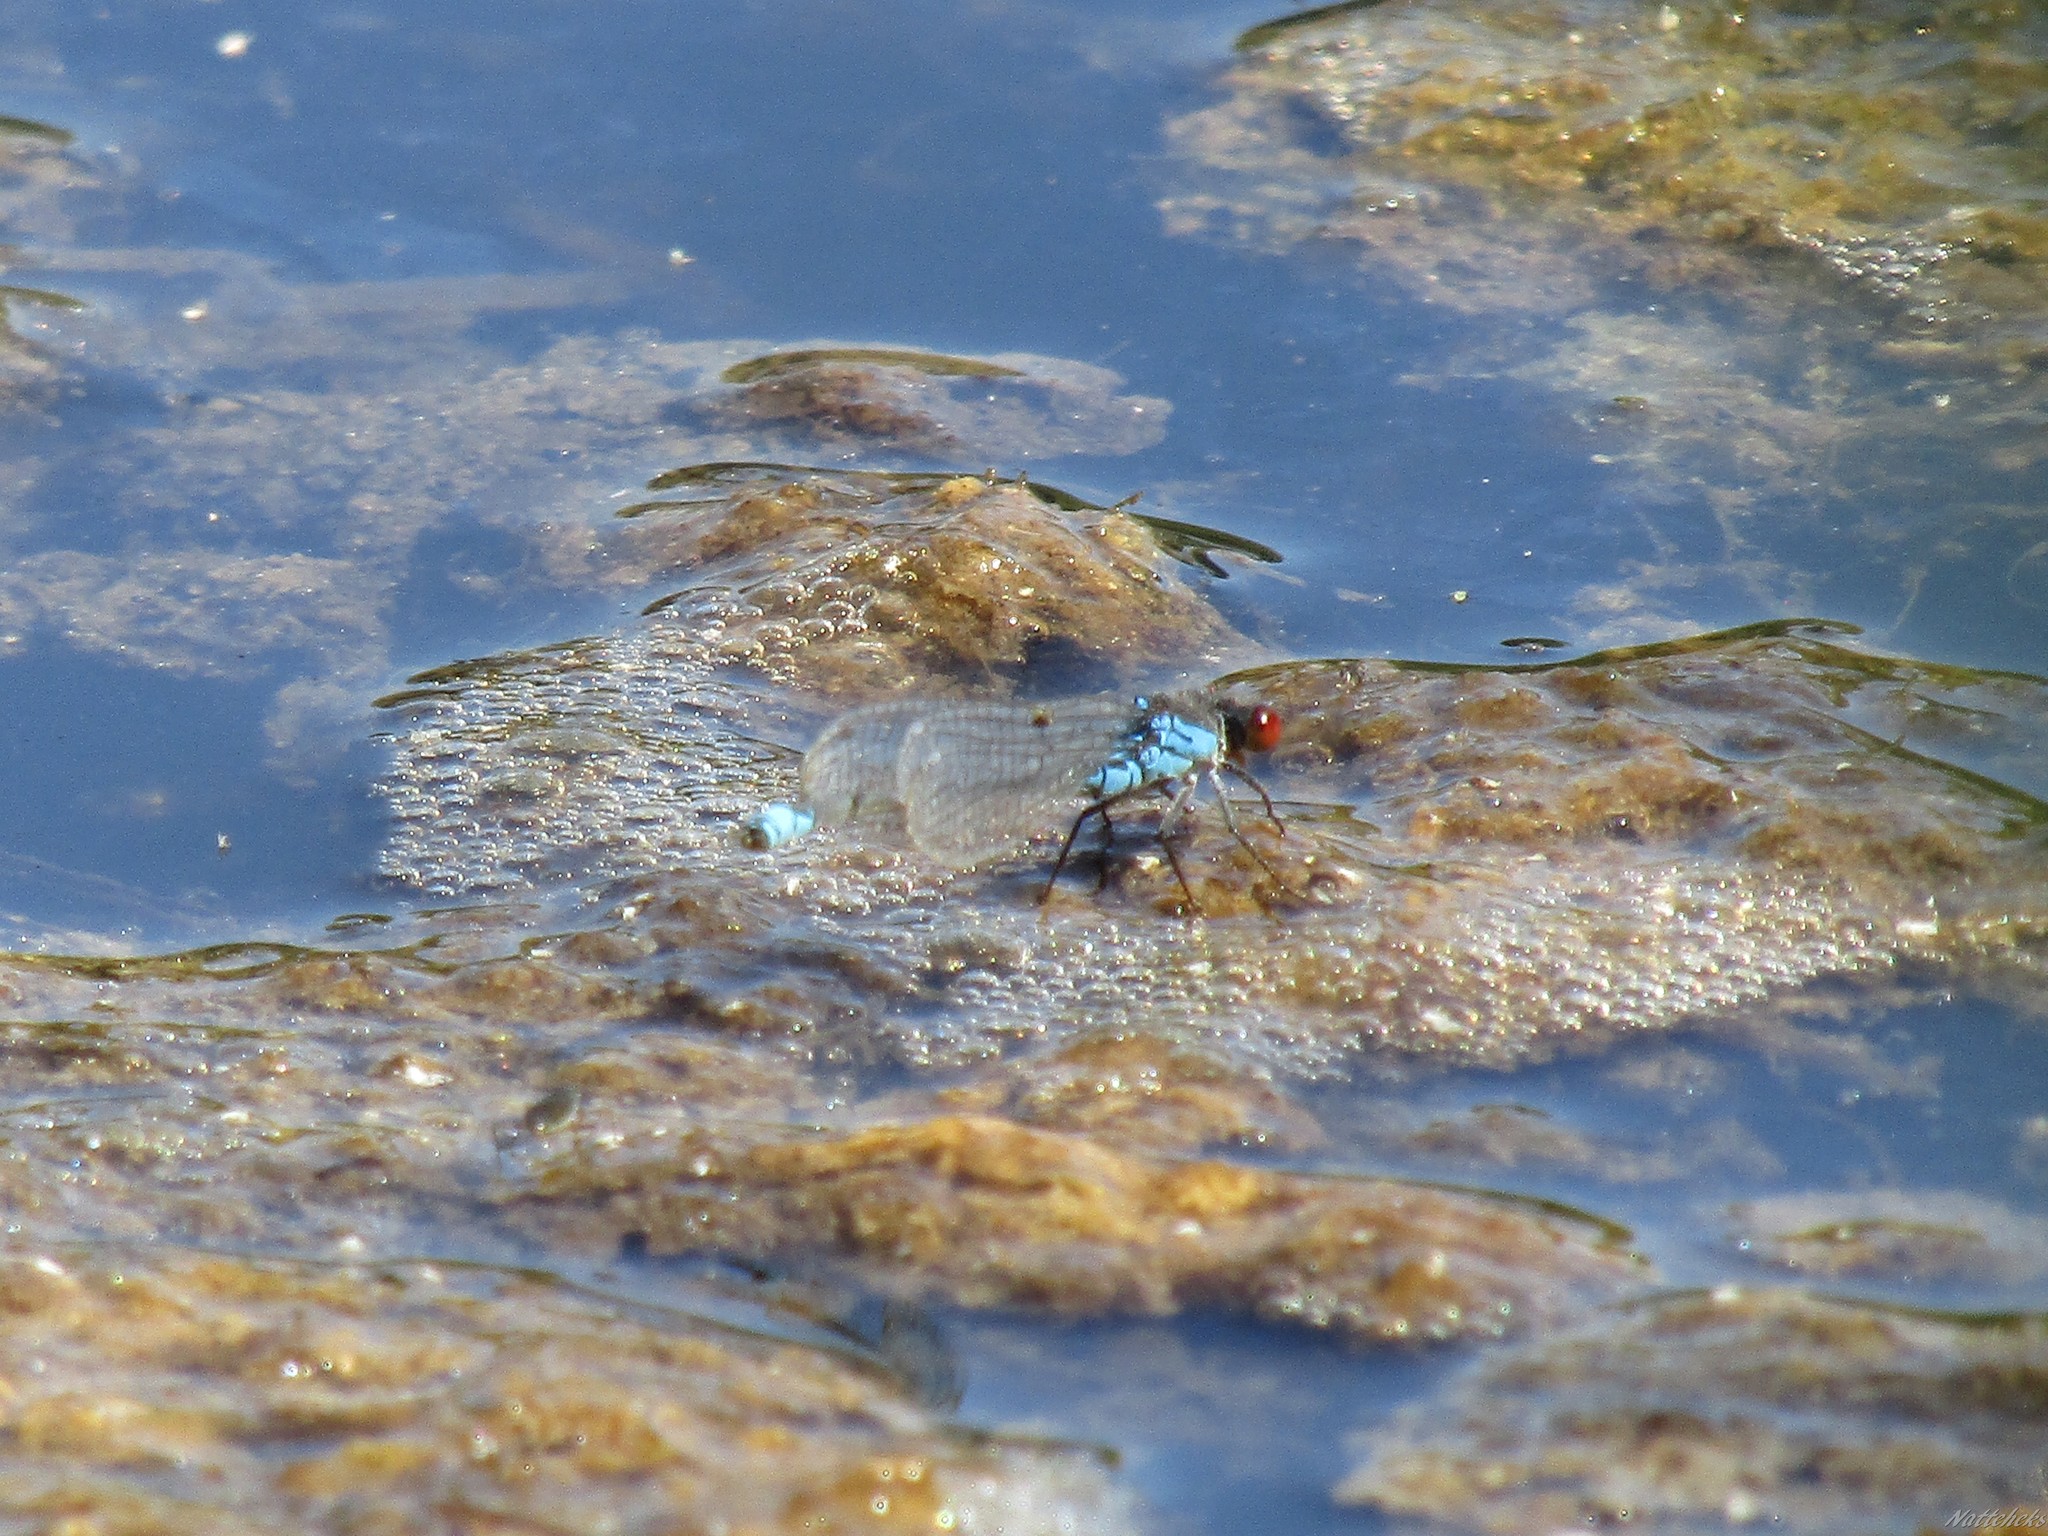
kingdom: Animalia
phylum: Arthropoda
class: Insecta
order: Odonata
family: Coenagrionidae
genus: Erythromma
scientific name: Erythromma viridulum
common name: Small red-eyed damselfly
